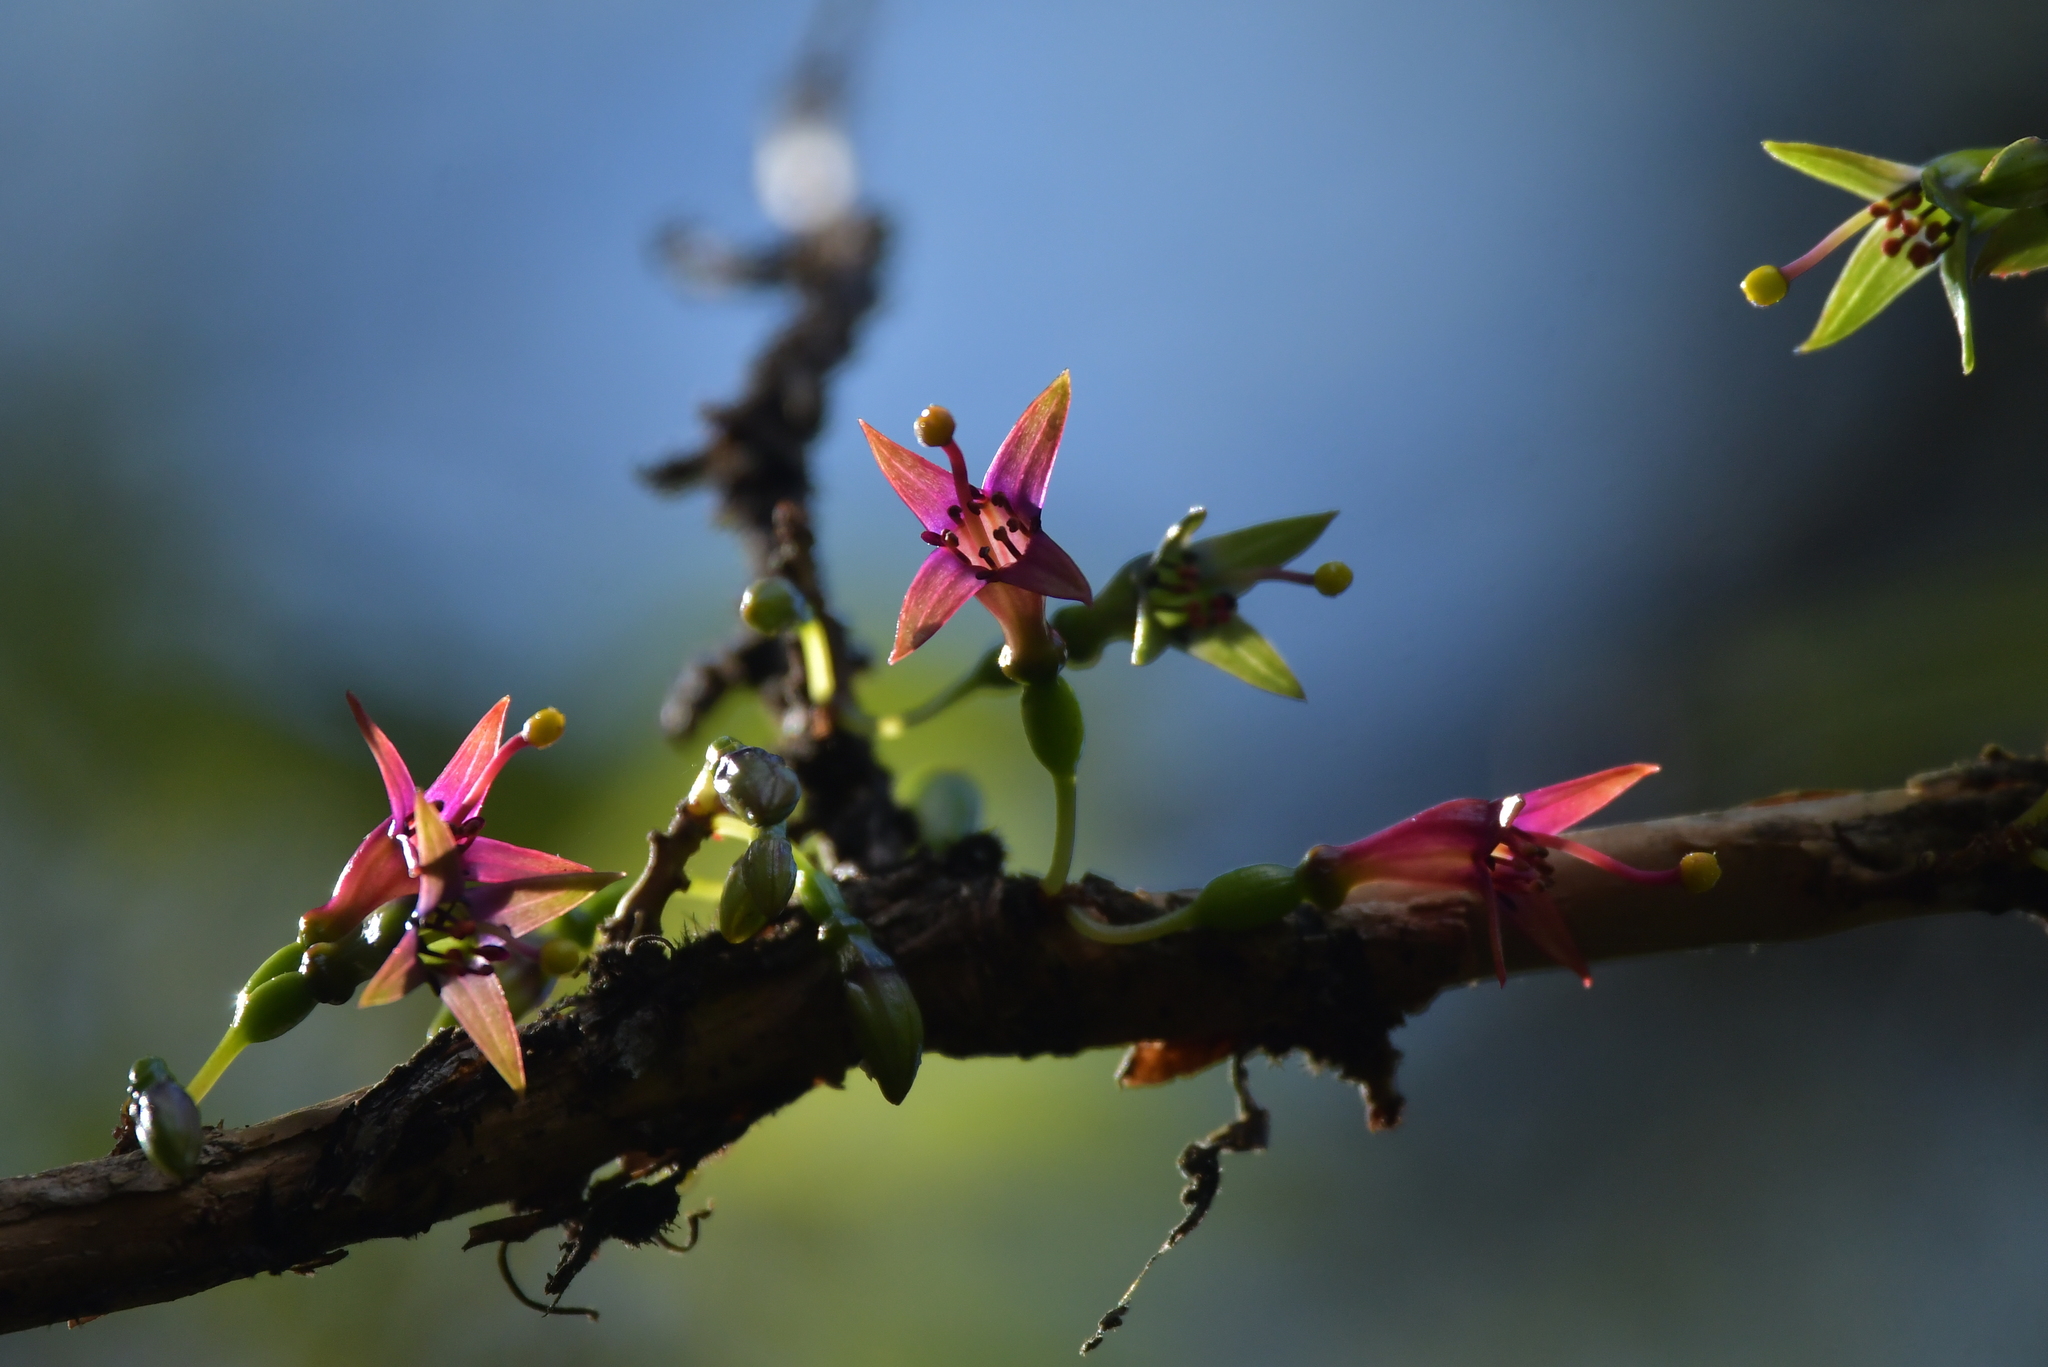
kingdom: Plantae
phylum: Tracheophyta
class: Magnoliopsida
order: Myrtales
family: Onagraceae
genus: Fuchsia
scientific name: Fuchsia excorticata
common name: Tree fuchsia
